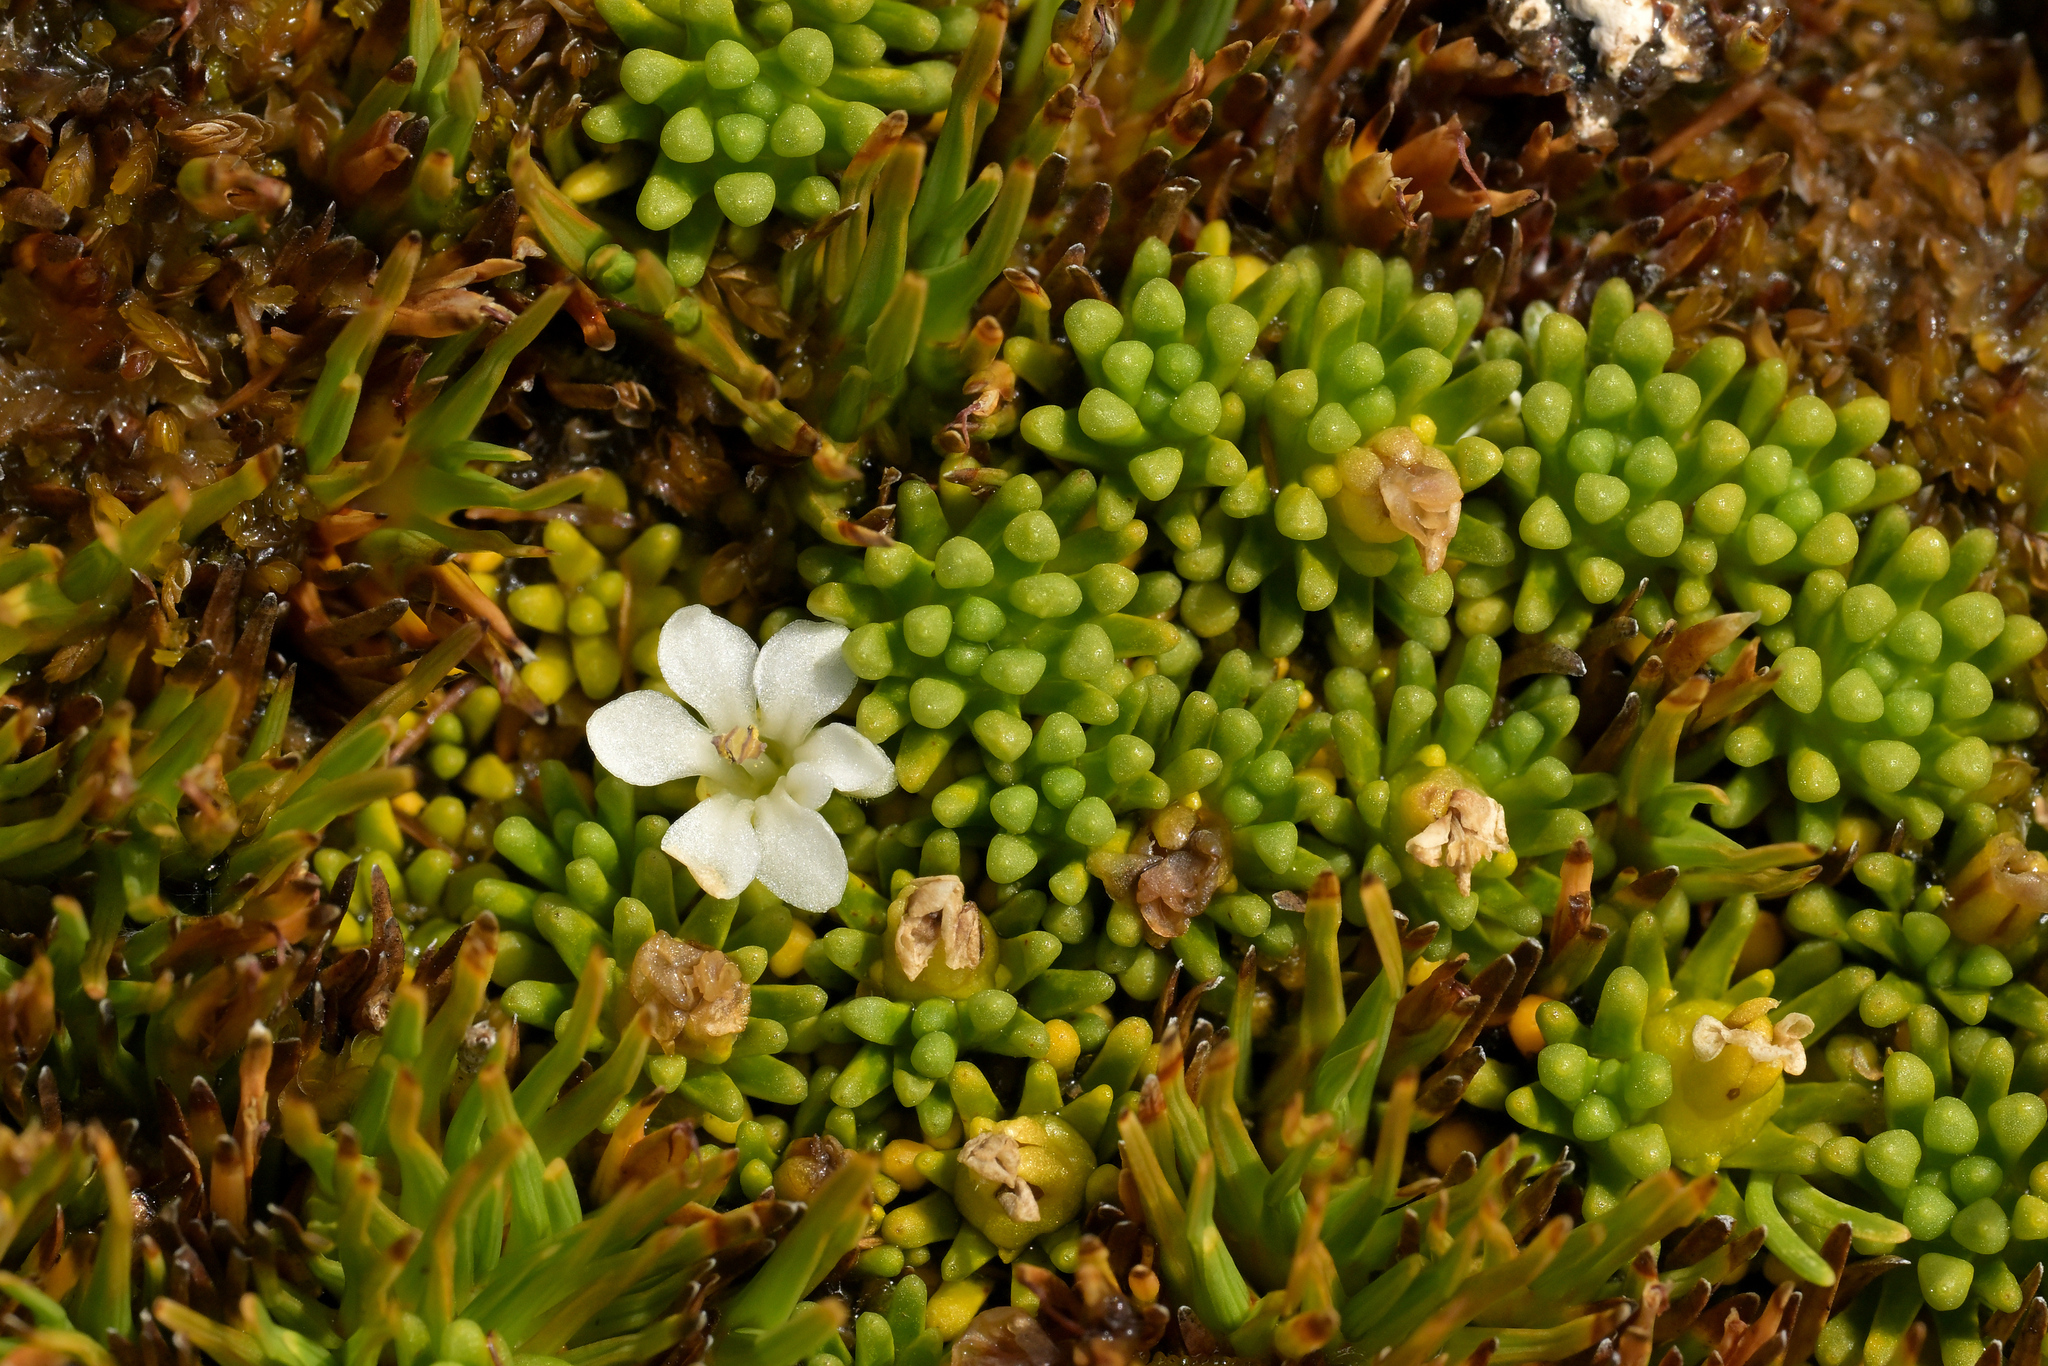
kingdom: Plantae
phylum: Tracheophyta
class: Magnoliopsida
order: Asterales
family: Stylidiaceae
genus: Phyllachne
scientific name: Phyllachne clavigera
